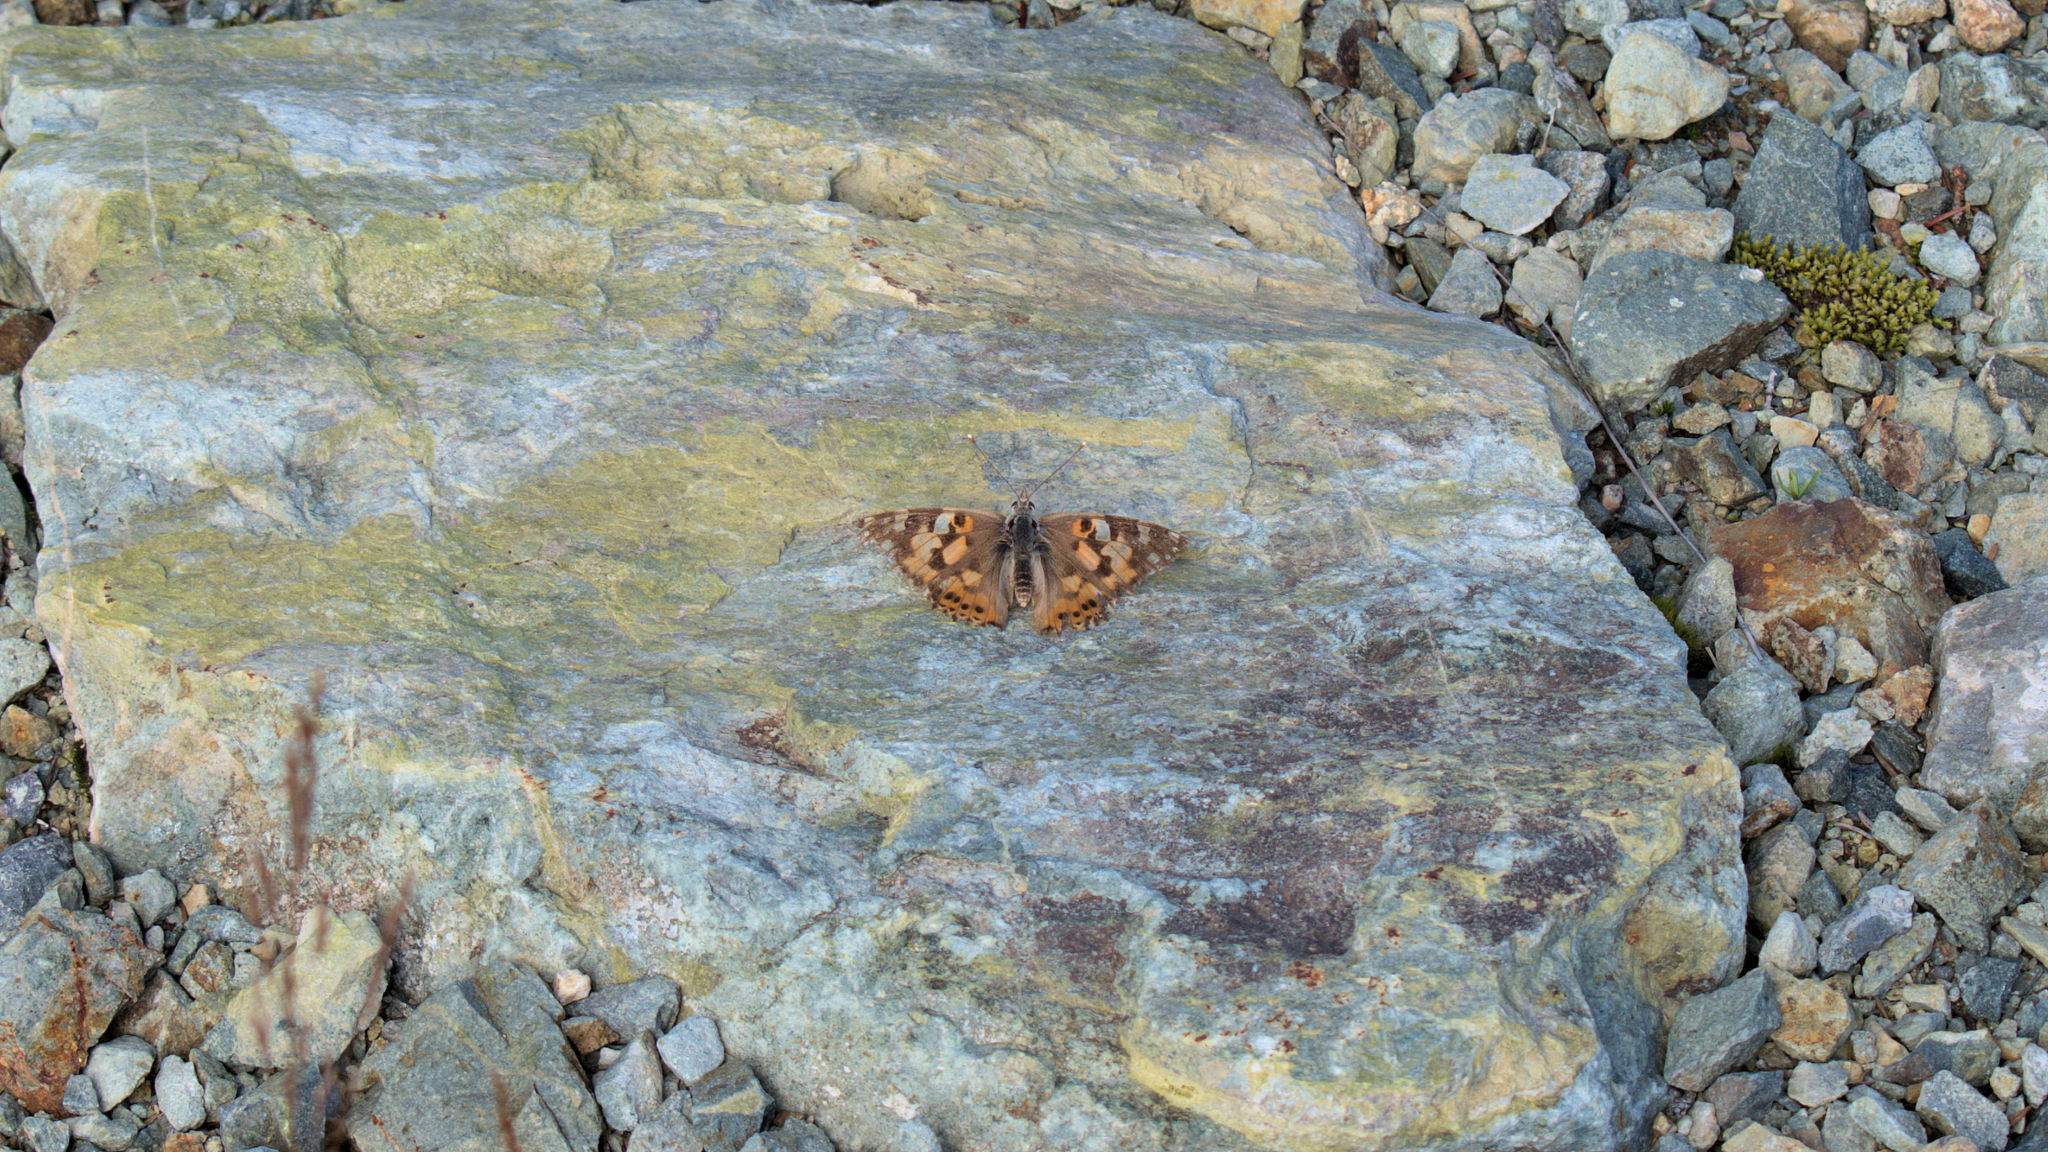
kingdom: Animalia
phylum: Arthropoda
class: Insecta
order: Lepidoptera
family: Nymphalidae
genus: Vanessa
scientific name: Vanessa cardui
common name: Painted lady
